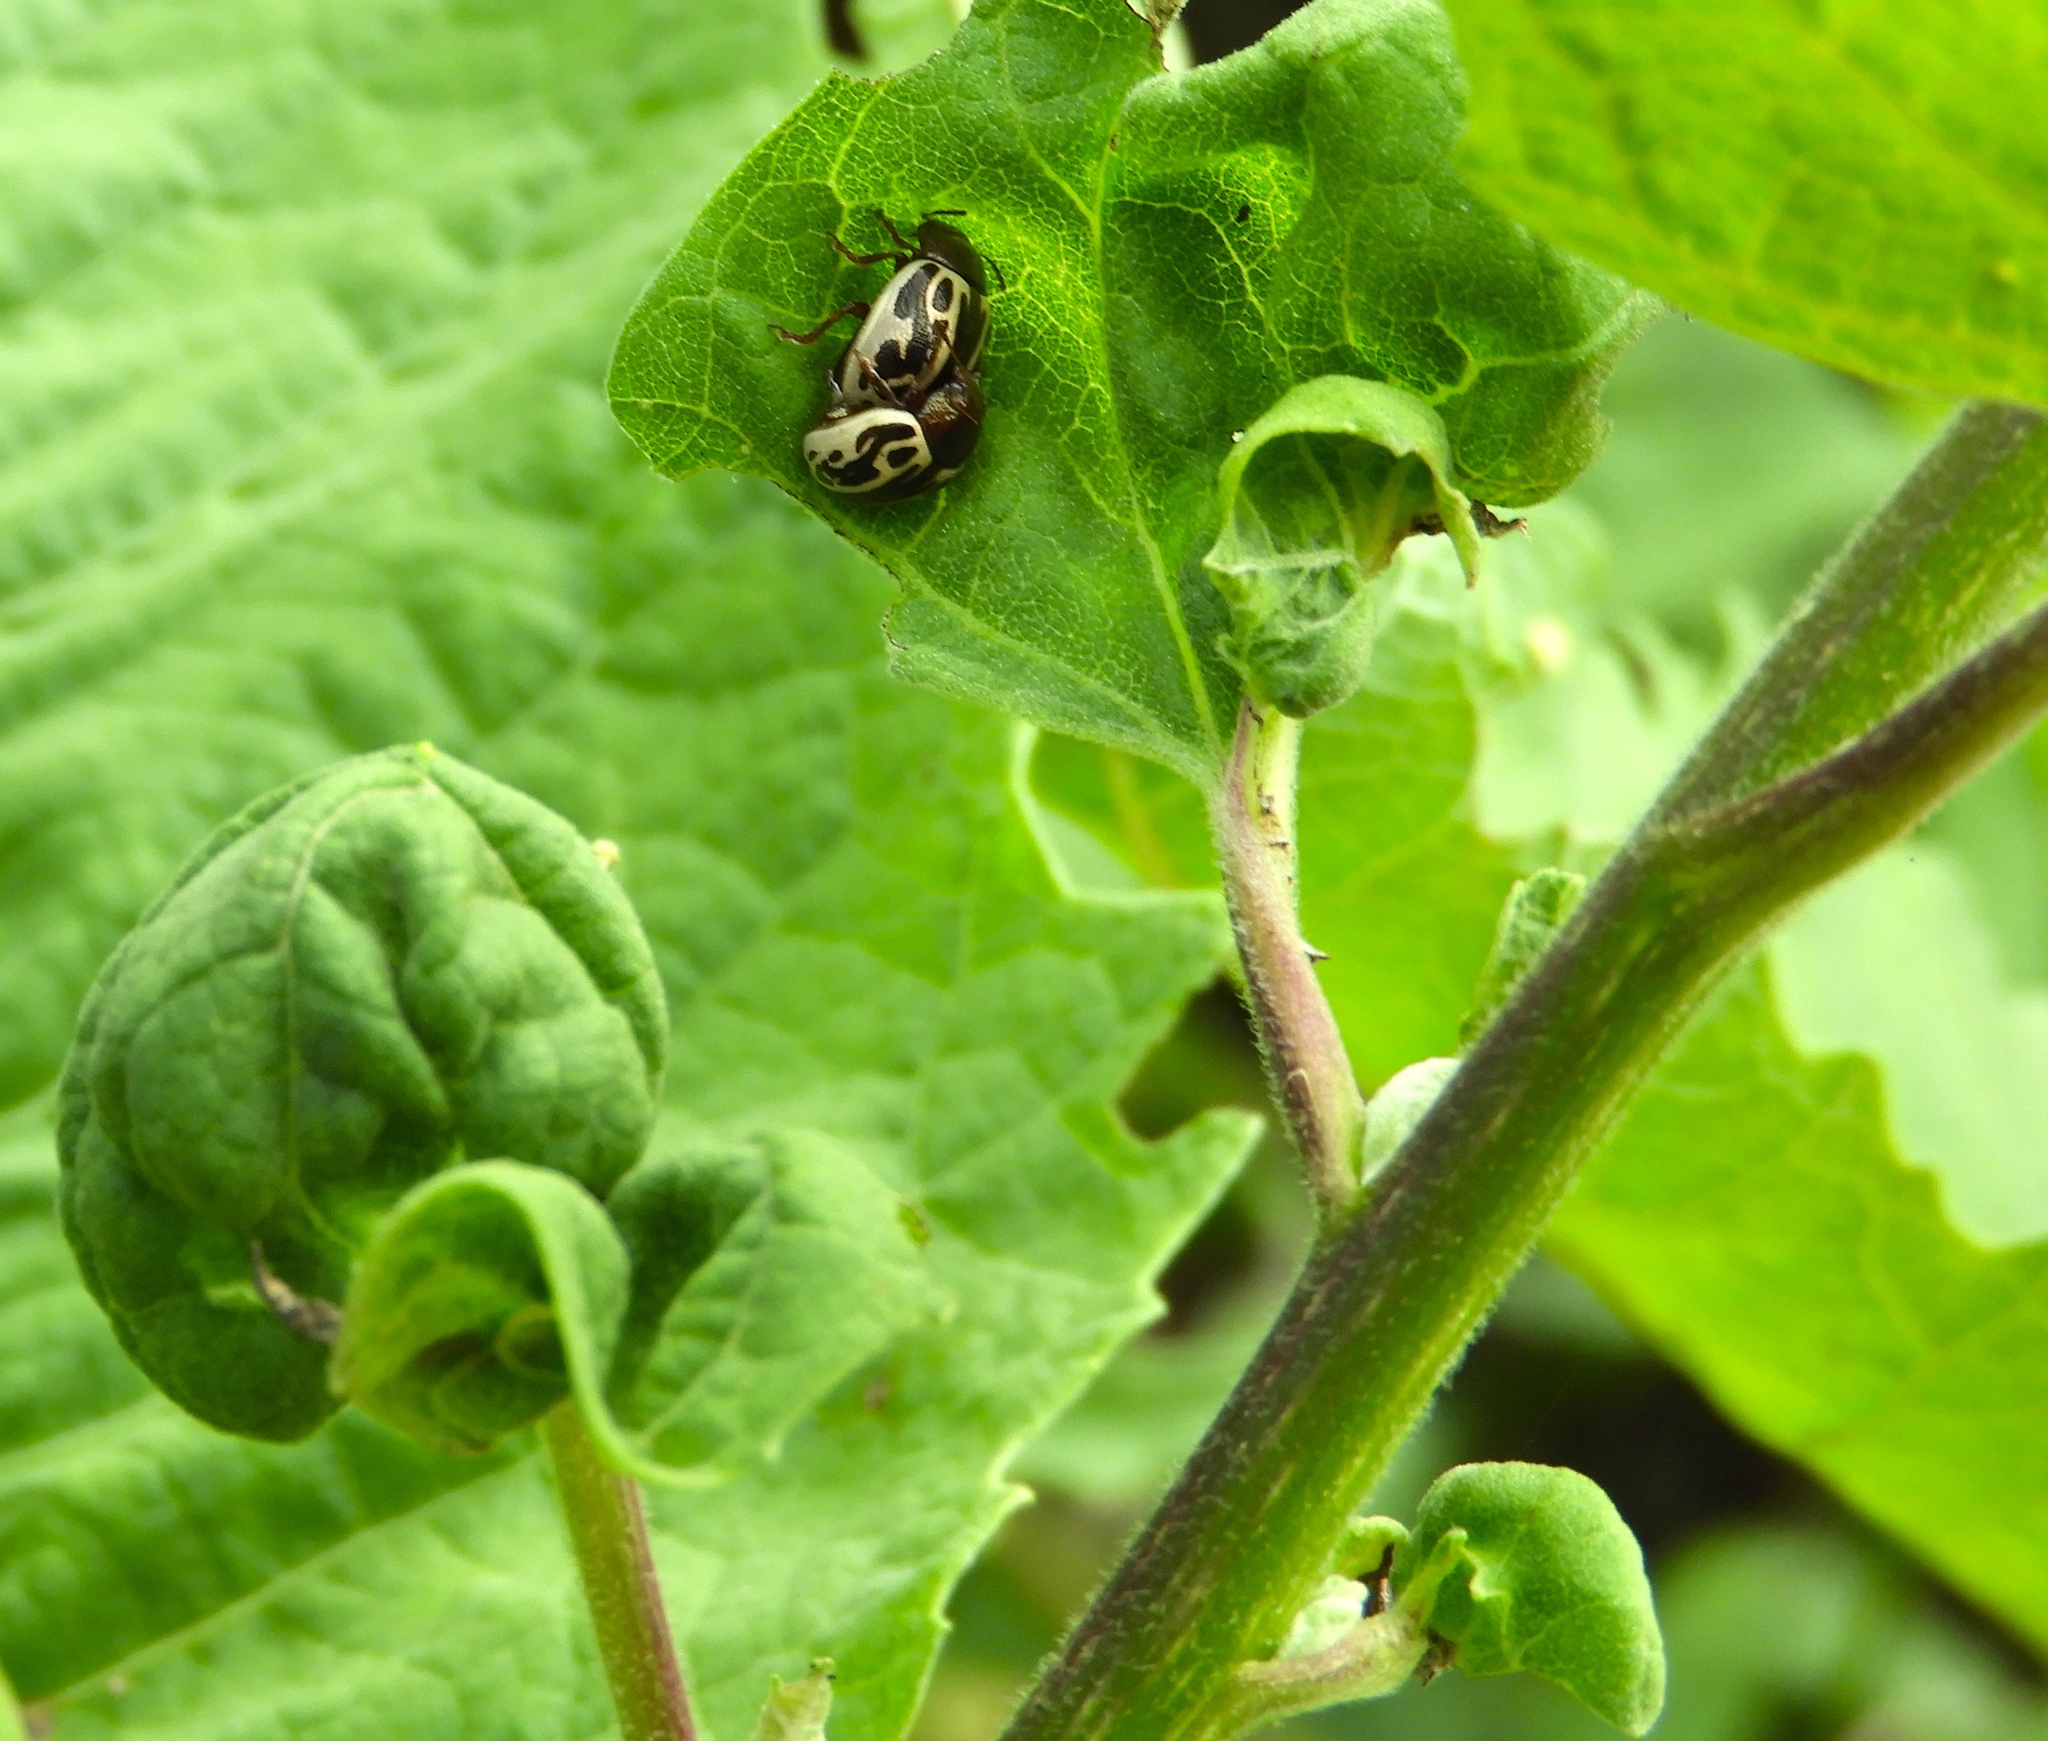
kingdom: Animalia
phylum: Arthropoda
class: Insecta
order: Coleoptera
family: Chrysomelidae
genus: Calligrapha
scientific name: Calligrapha
